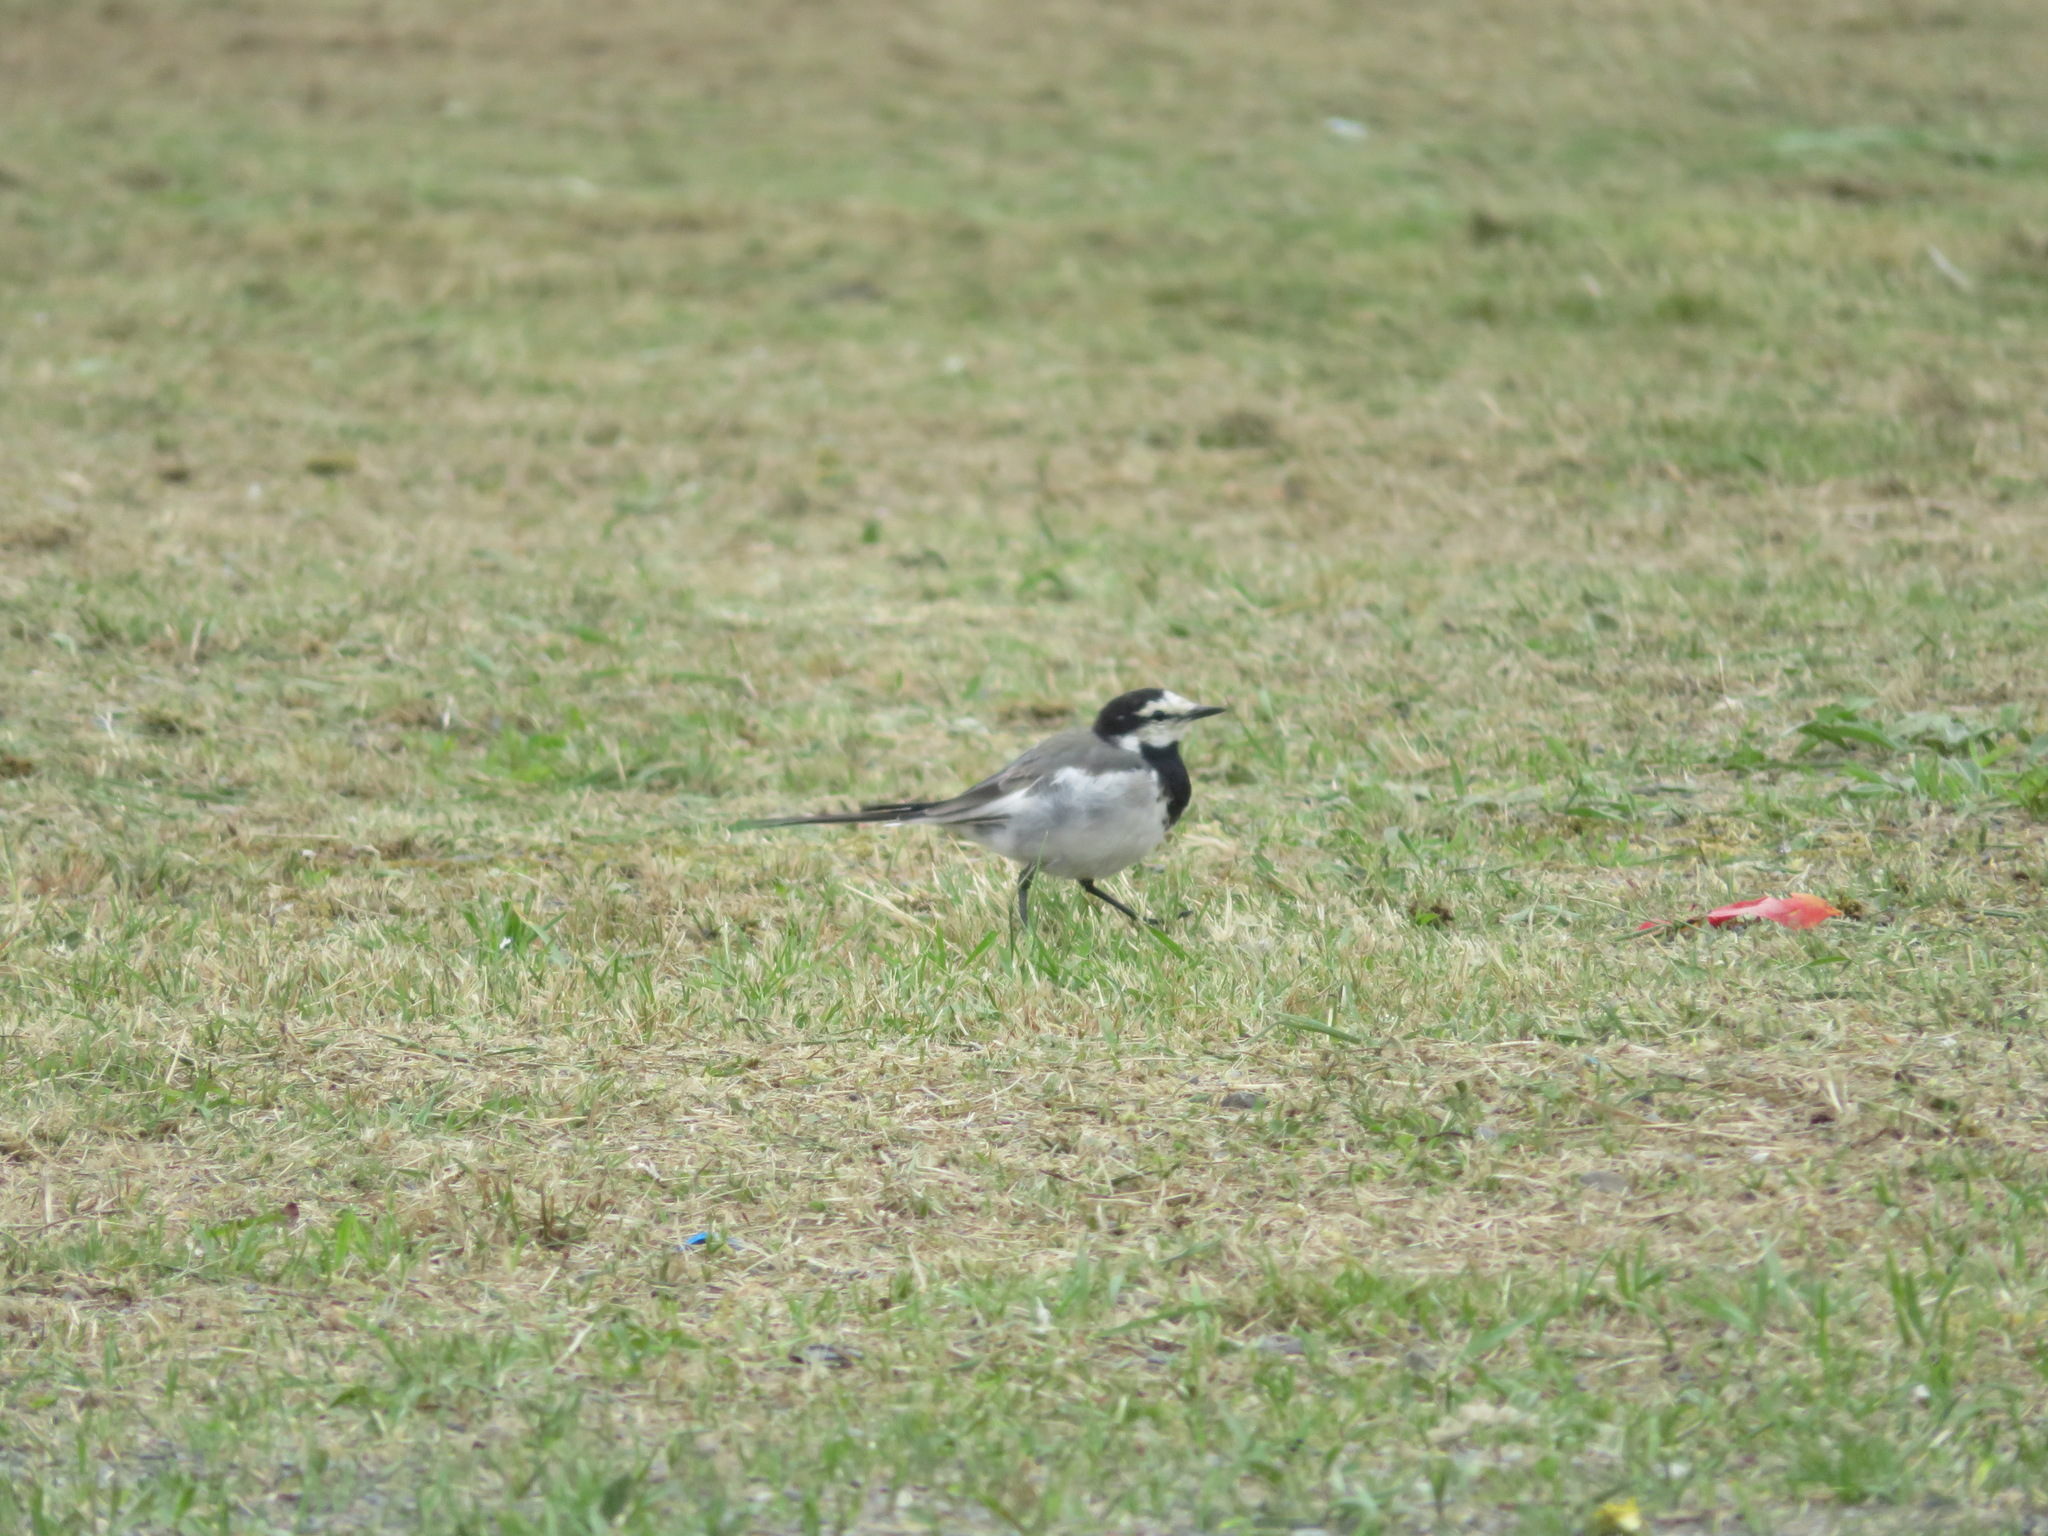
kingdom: Animalia
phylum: Chordata
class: Aves
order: Passeriformes
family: Motacillidae
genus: Motacilla
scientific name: Motacilla alba
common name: White wagtail
